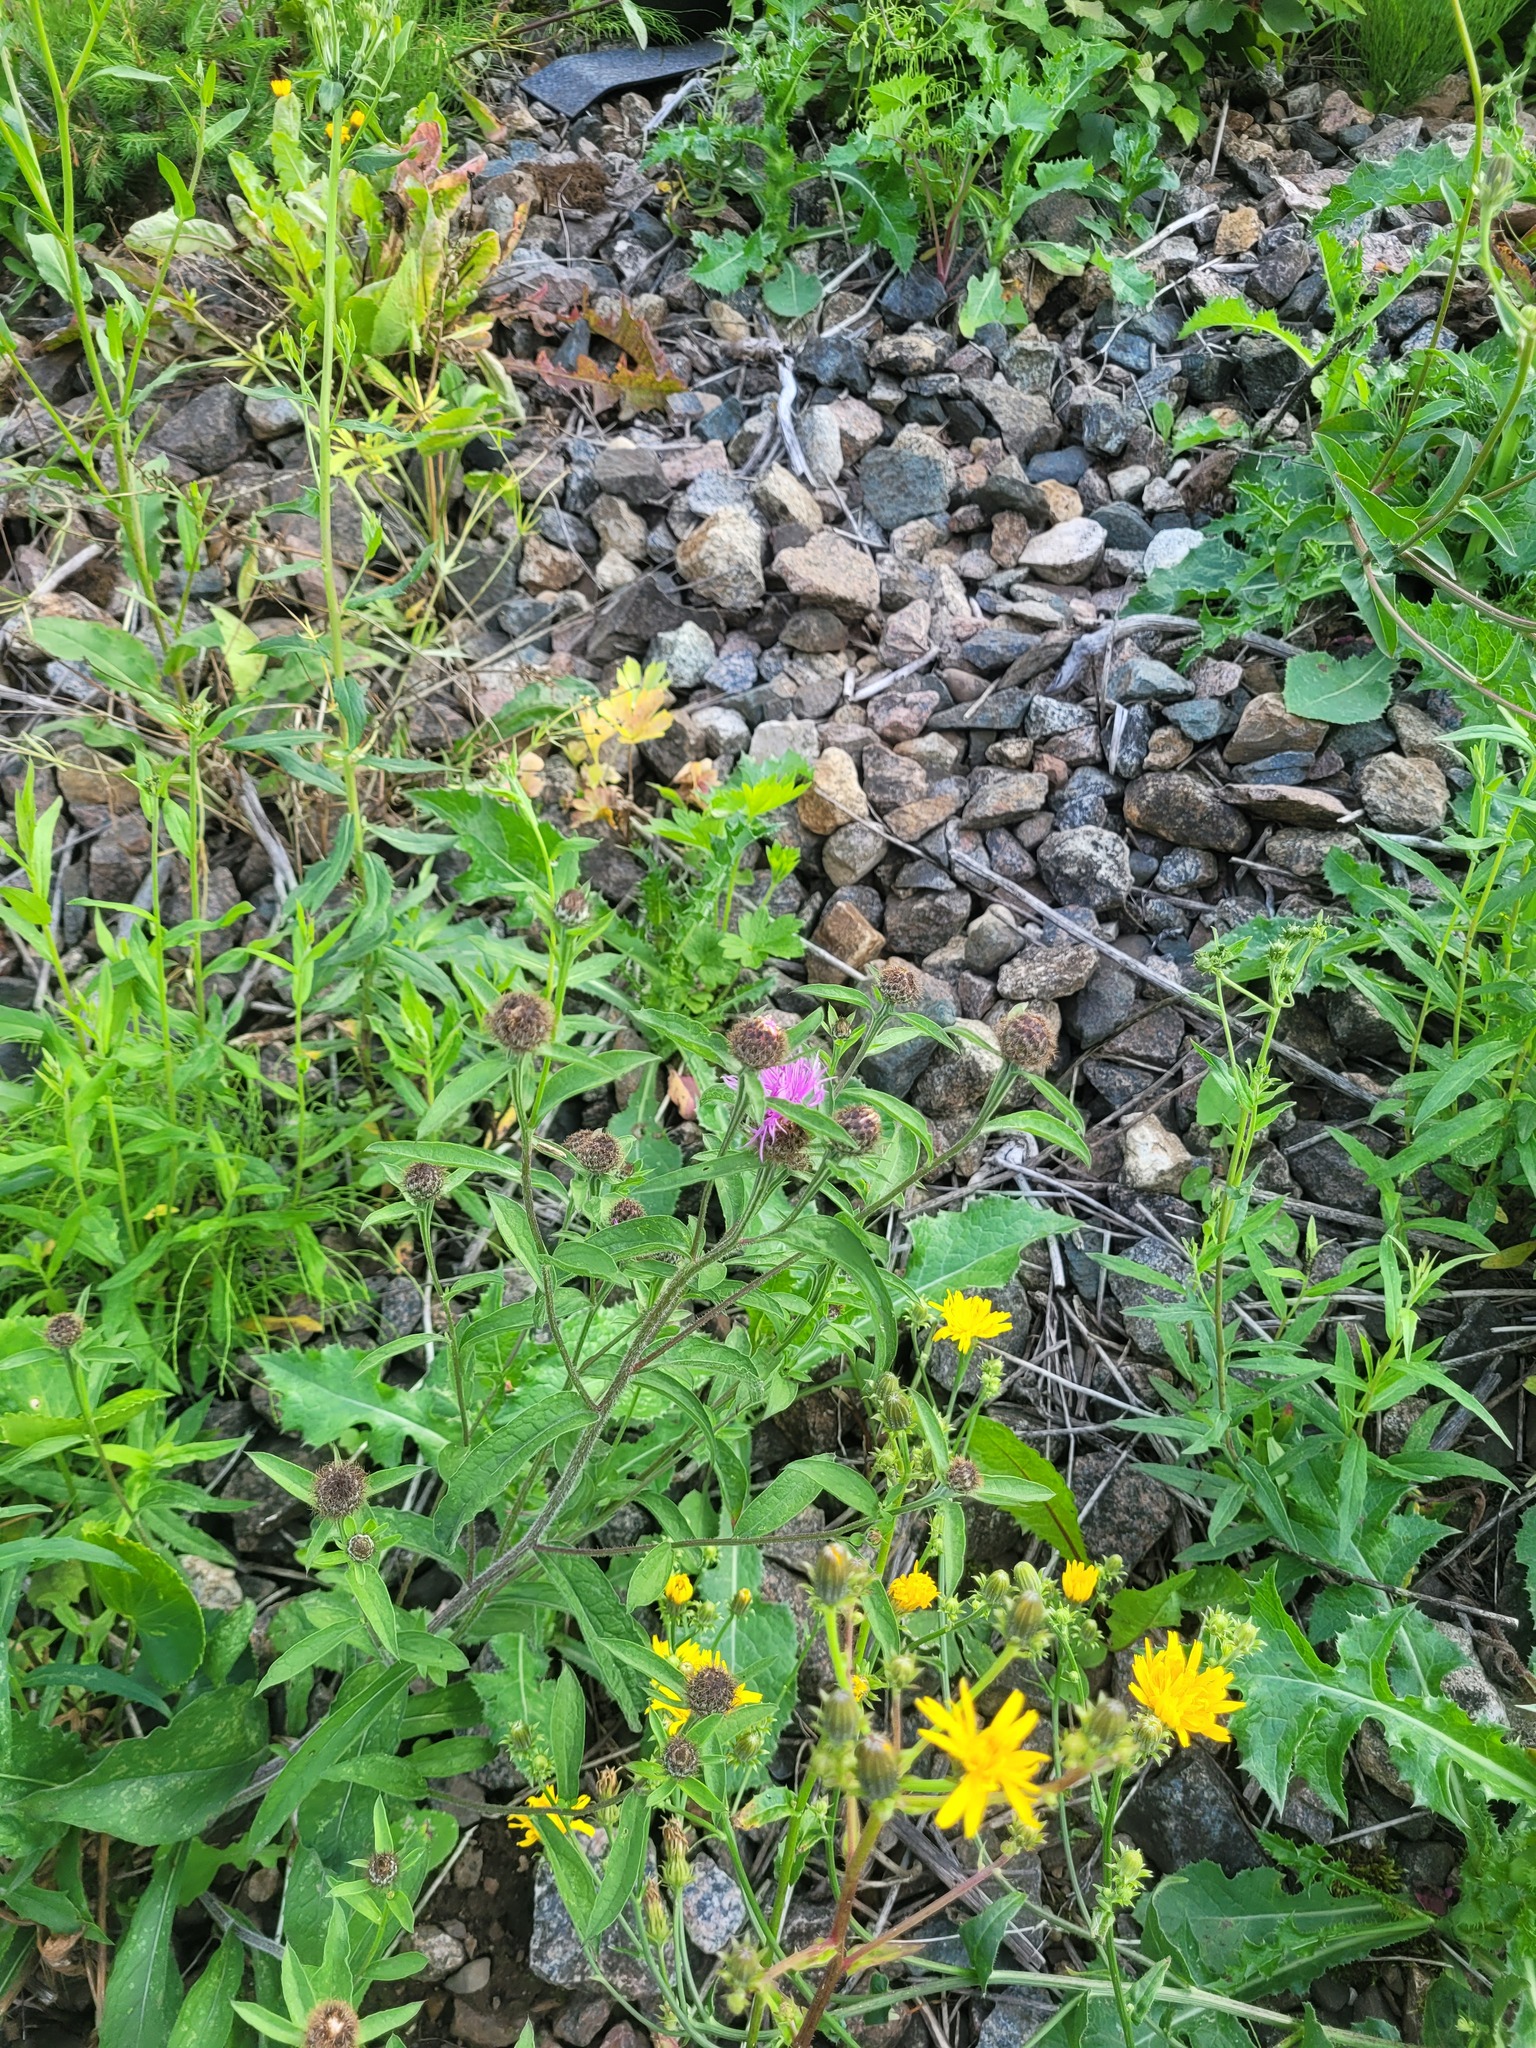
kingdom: Plantae
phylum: Tracheophyta
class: Magnoliopsida
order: Asterales
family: Asteraceae
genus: Centaurea
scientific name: Centaurea phrygia
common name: Wig knapweed
